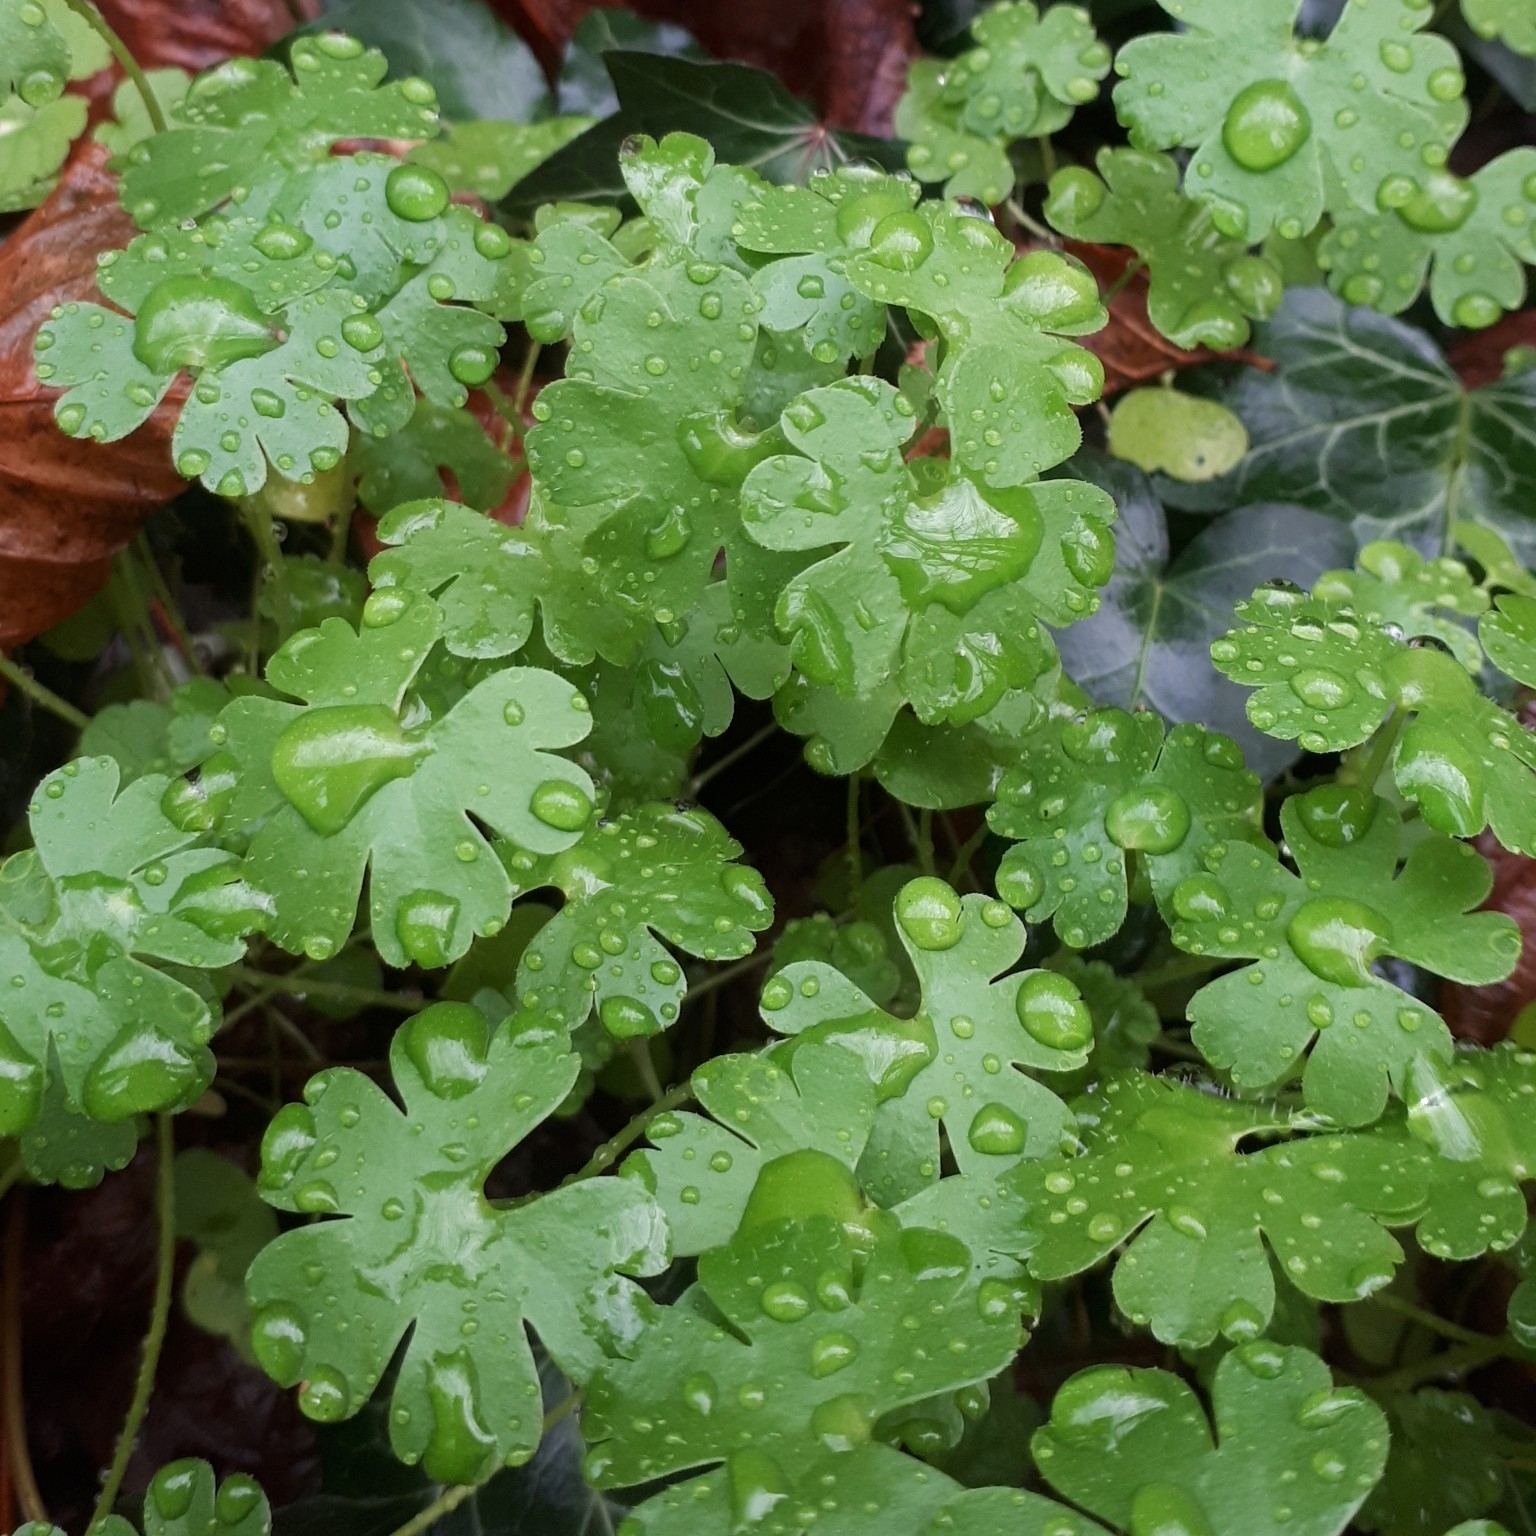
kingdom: Plantae
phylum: Tracheophyta
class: Magnoliopsida
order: Geraniales
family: Geraniaceae
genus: Geranium
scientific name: Geranium lucidum
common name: Shining crane's-bill
